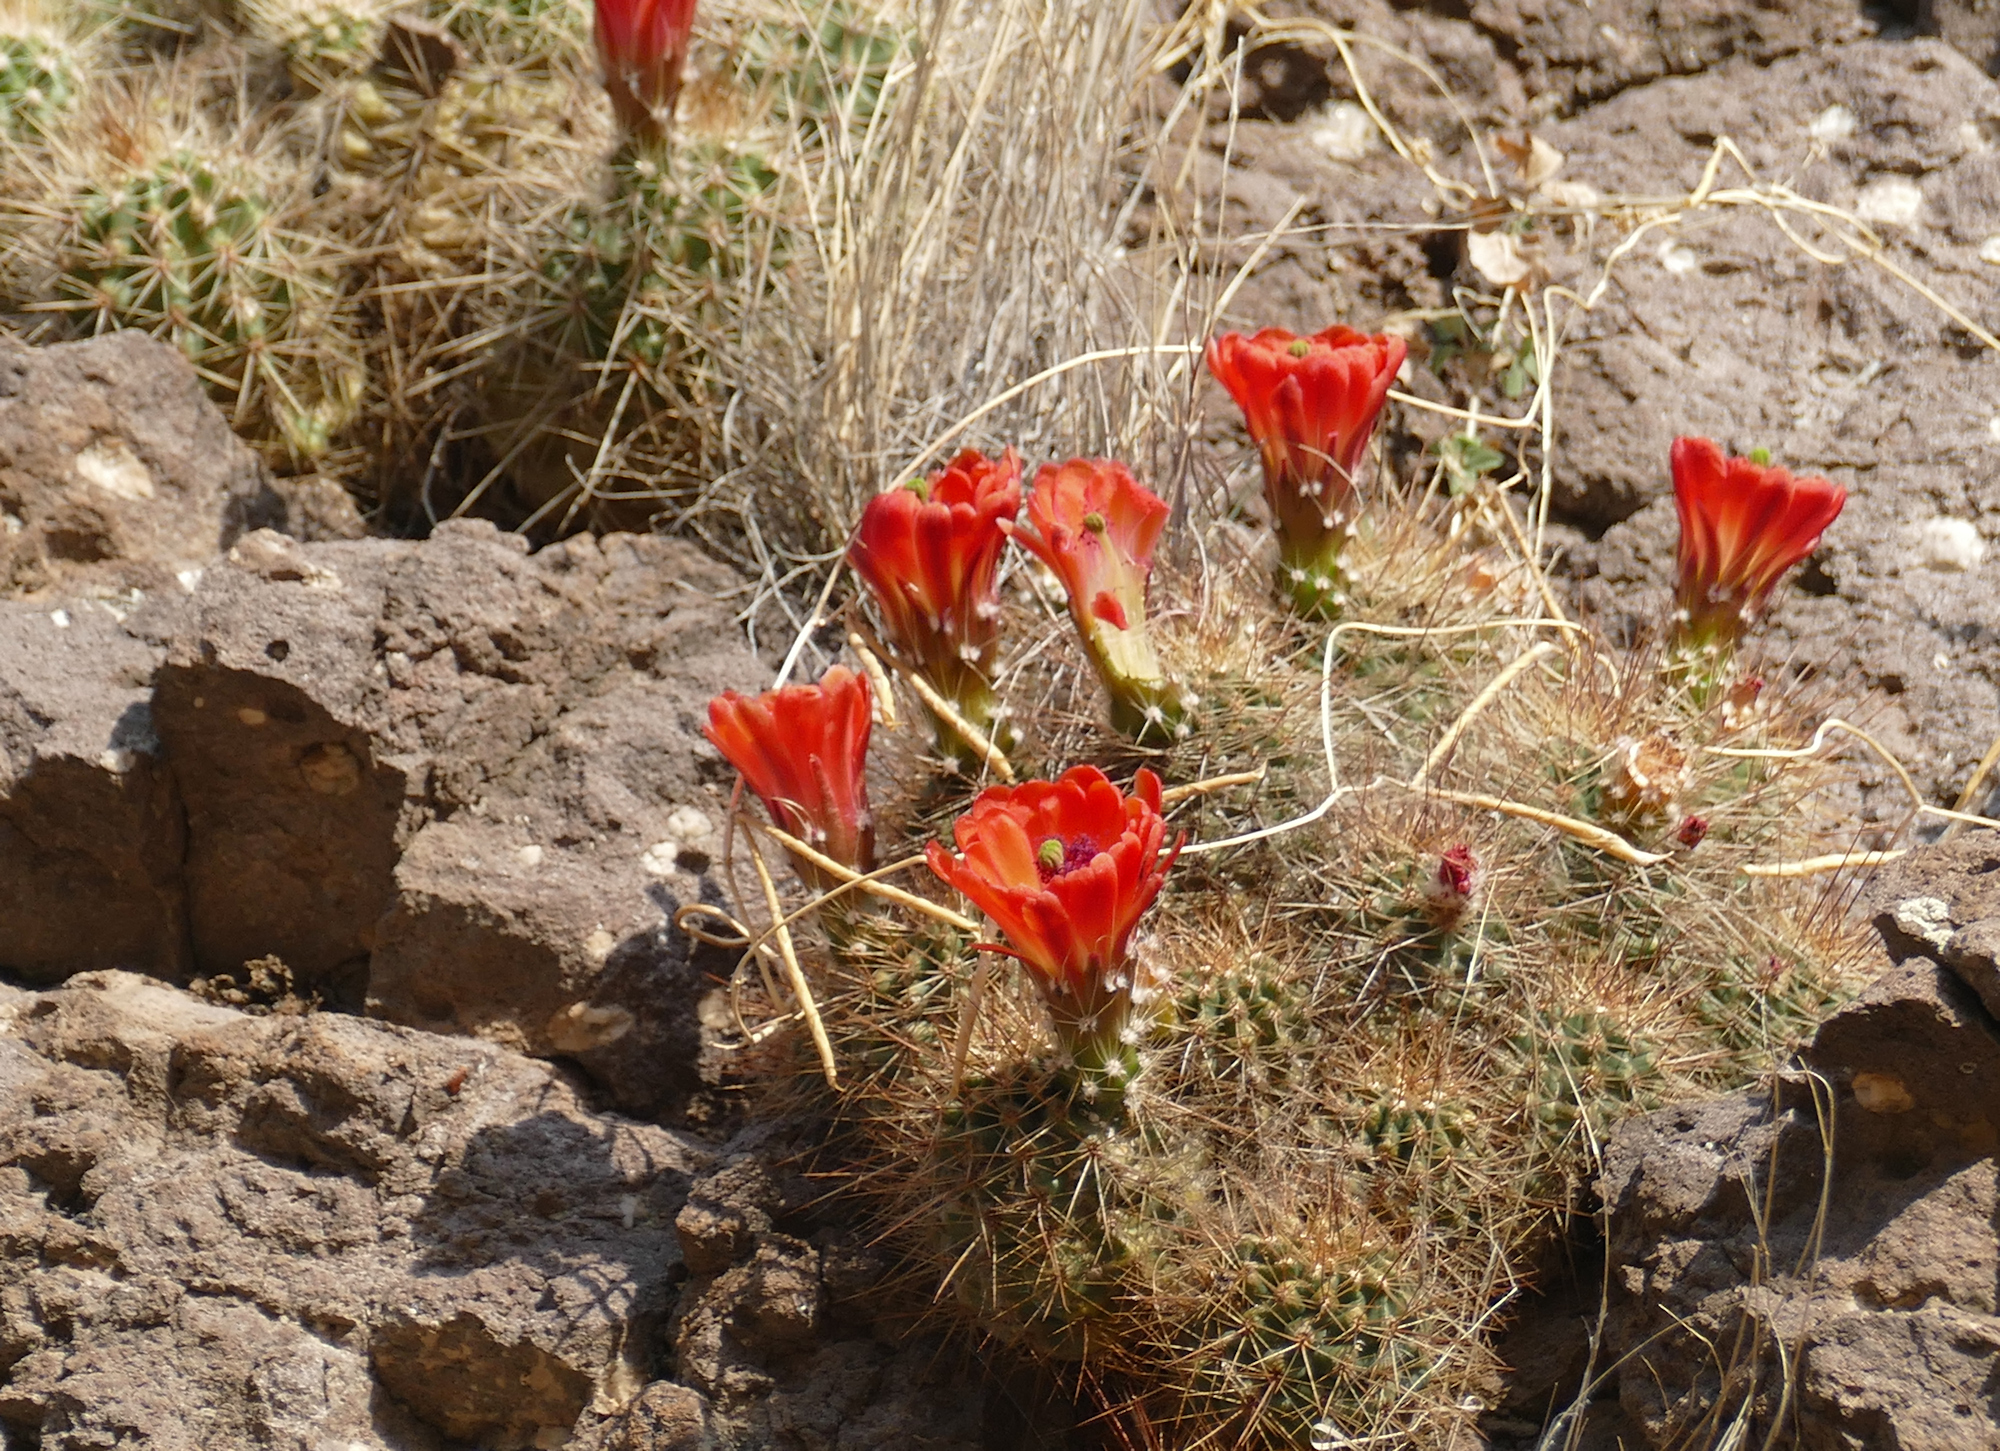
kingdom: Plantae
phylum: Tracheophyta
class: Magnoliopsida
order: Caryophyllales
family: Cactaceae
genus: Echinocereus
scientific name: Echinocereus coccineus
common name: Scarlet hedgehog cactus
